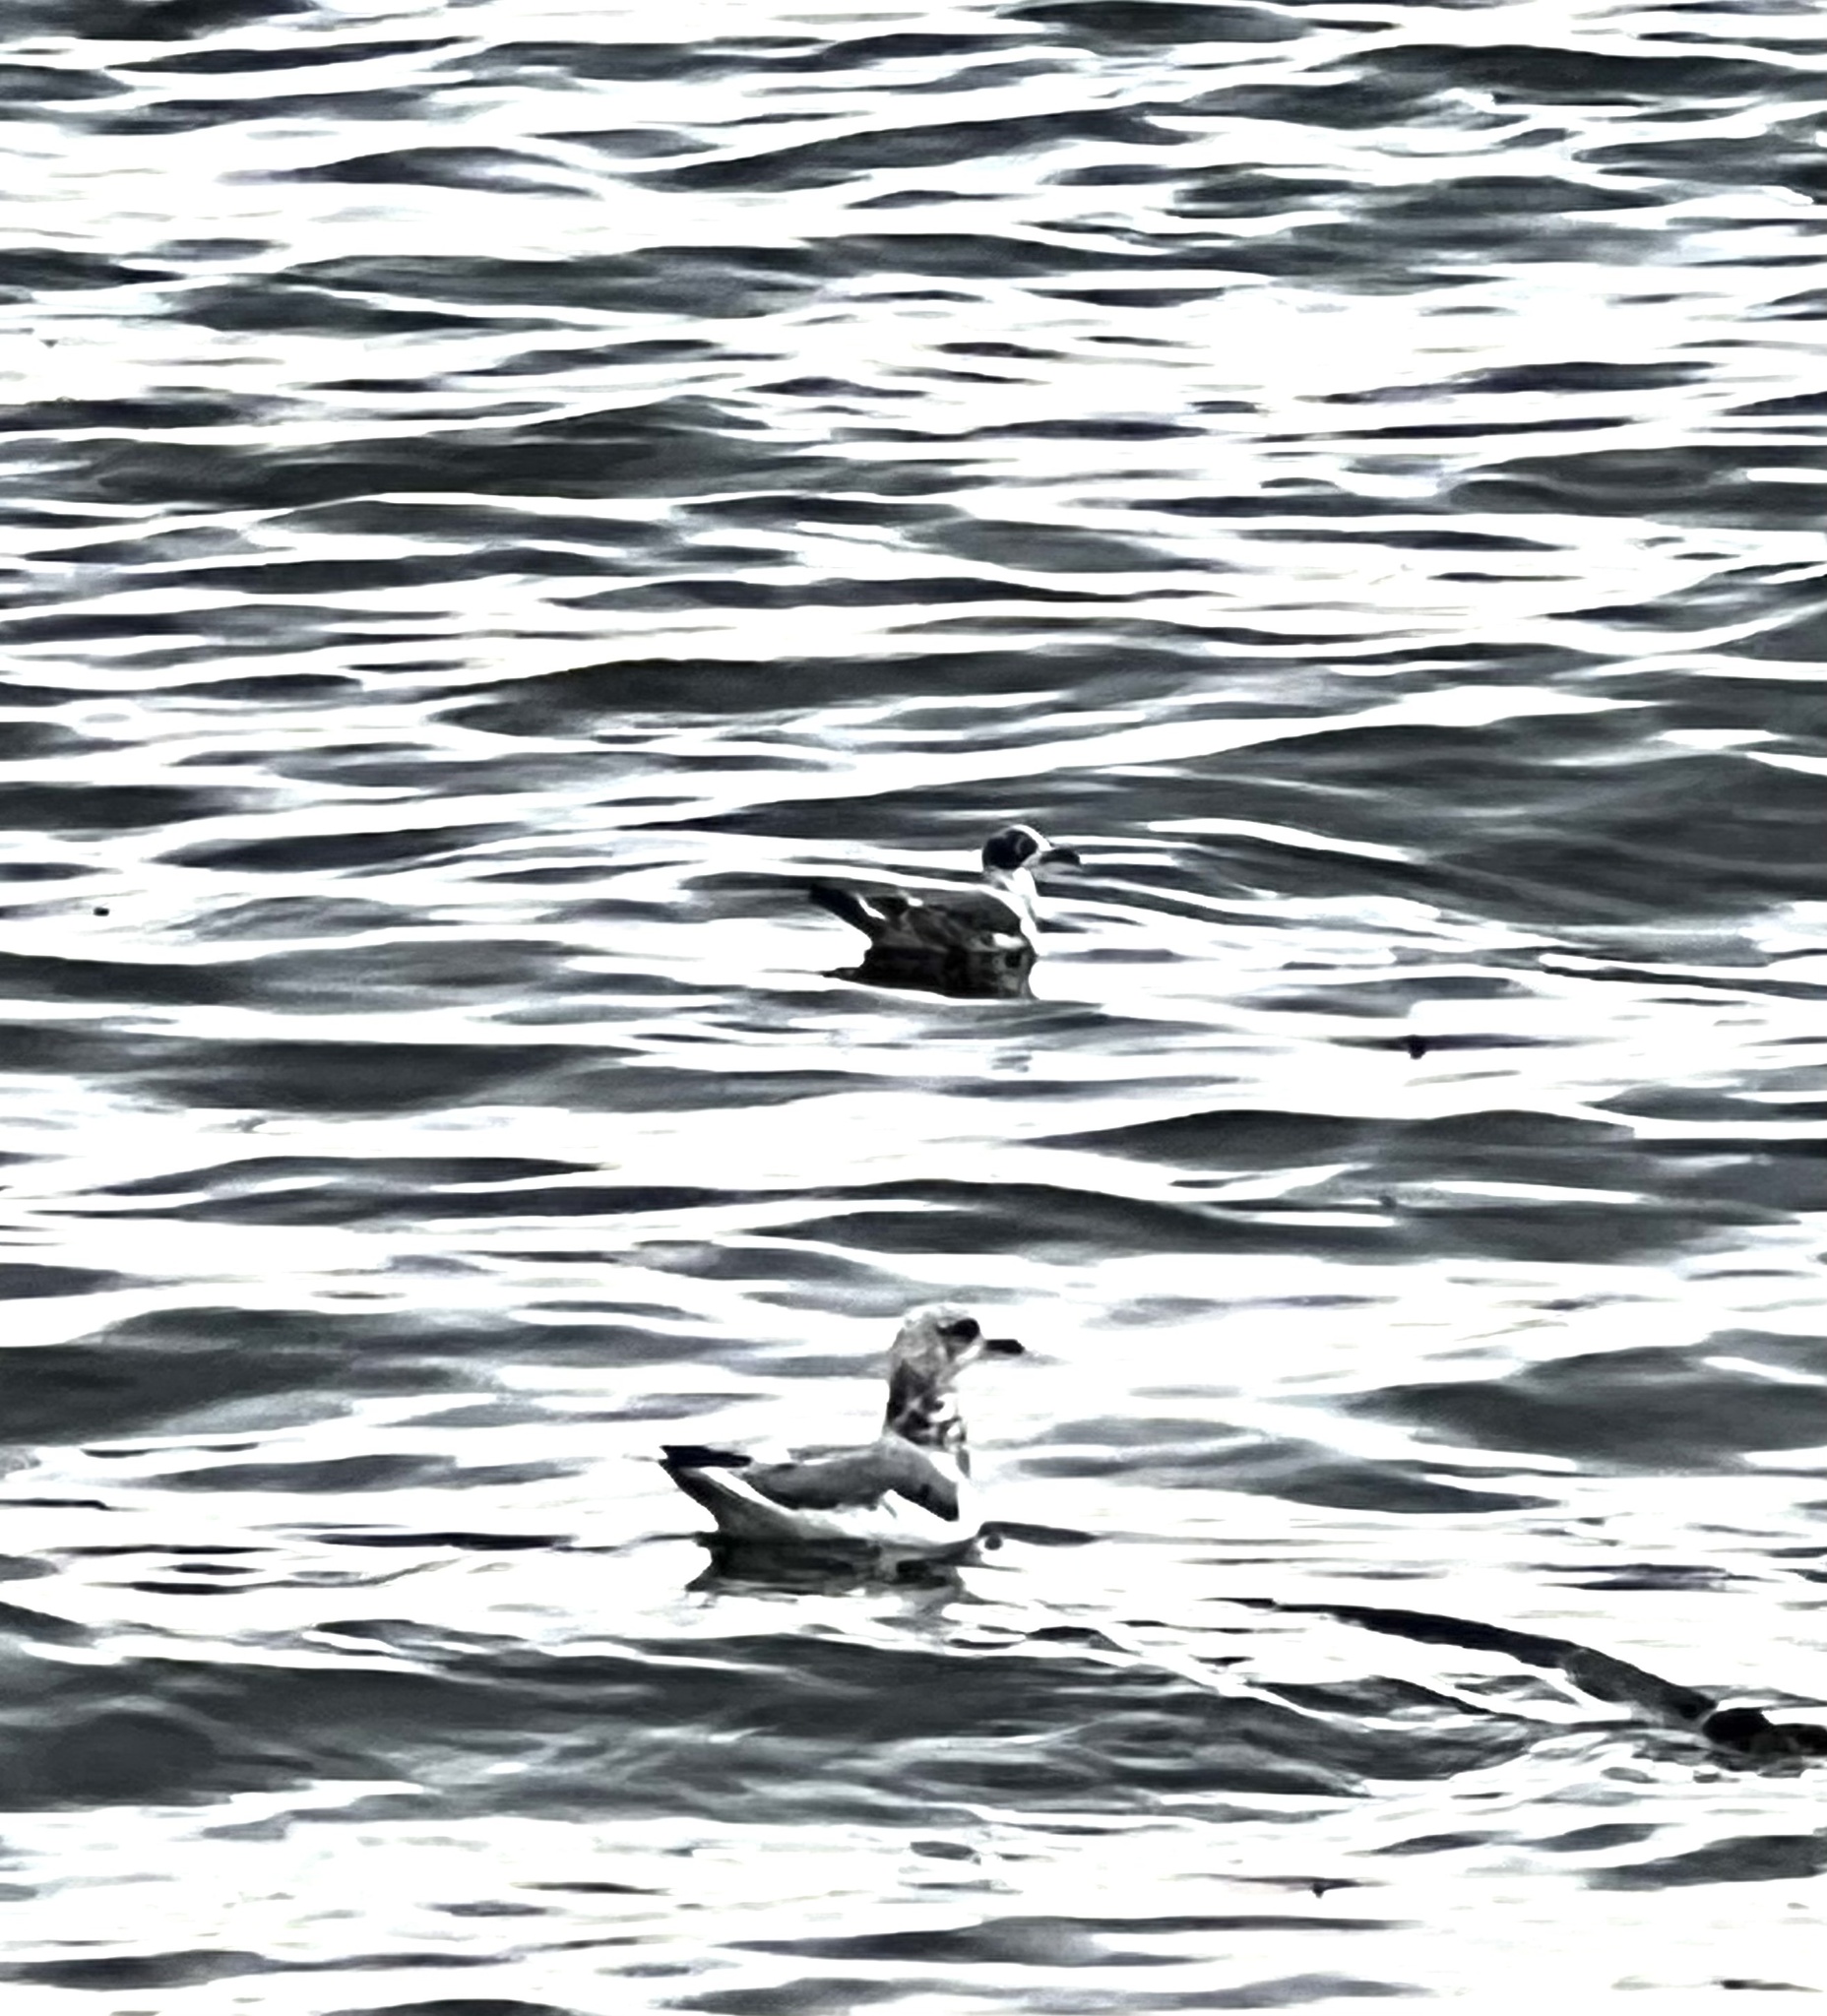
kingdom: Animalia
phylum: Chordata
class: Aves
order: Charadriiformes
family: Laridae
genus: Leucophaeus
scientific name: Leucophaeus pipixcan
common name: Franklin's gull
